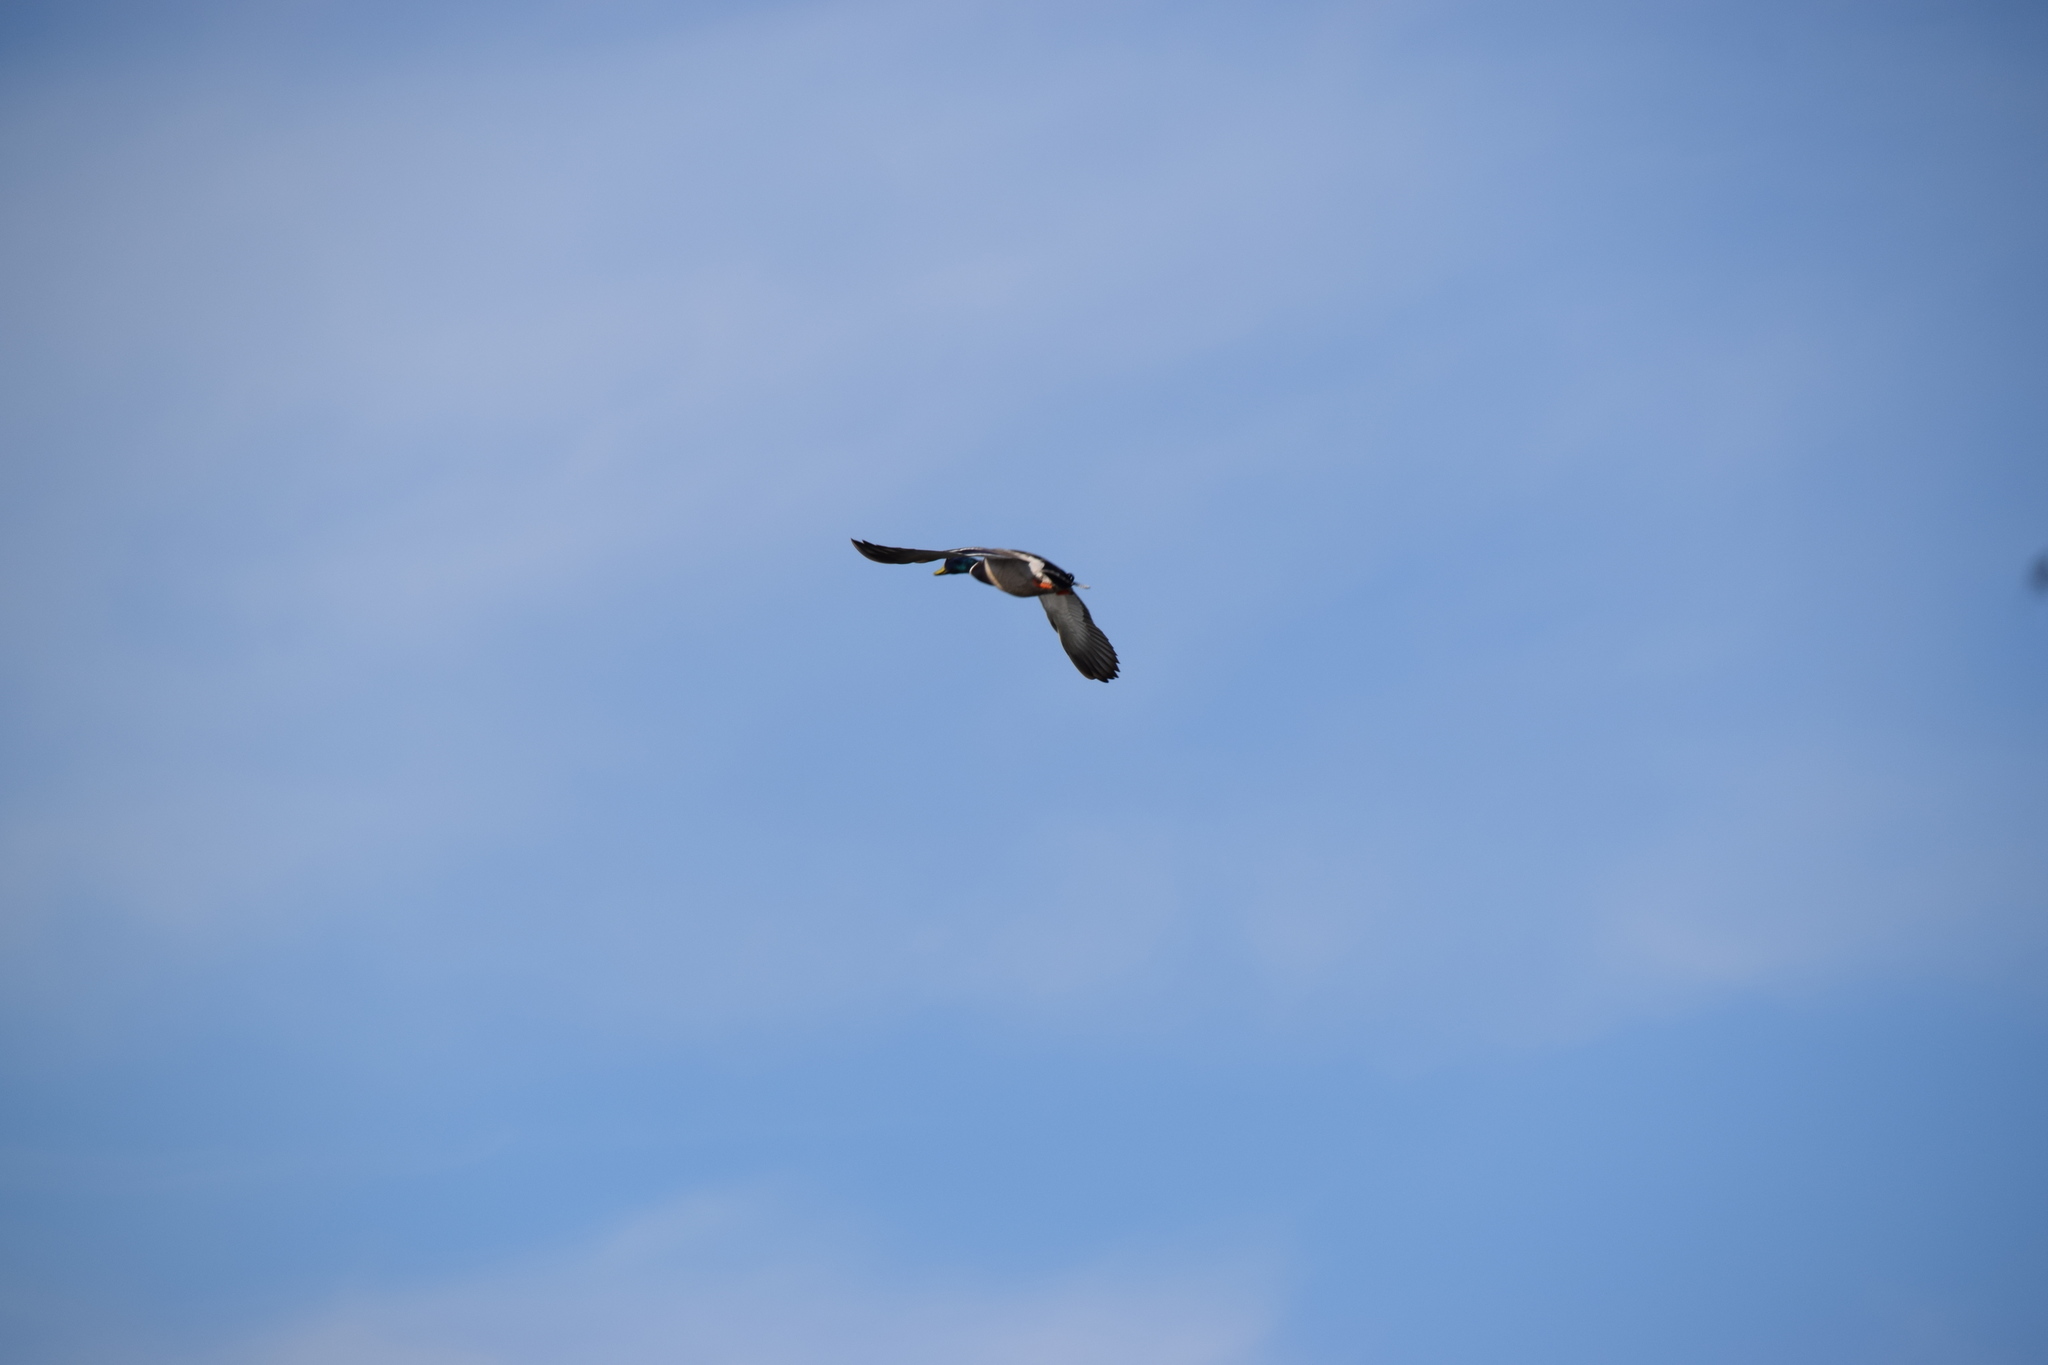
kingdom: Animalia
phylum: Chordata
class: Aves
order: Anseriformes
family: Anatidae
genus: Anas
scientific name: Anas platyrhynchos
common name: Mallard
